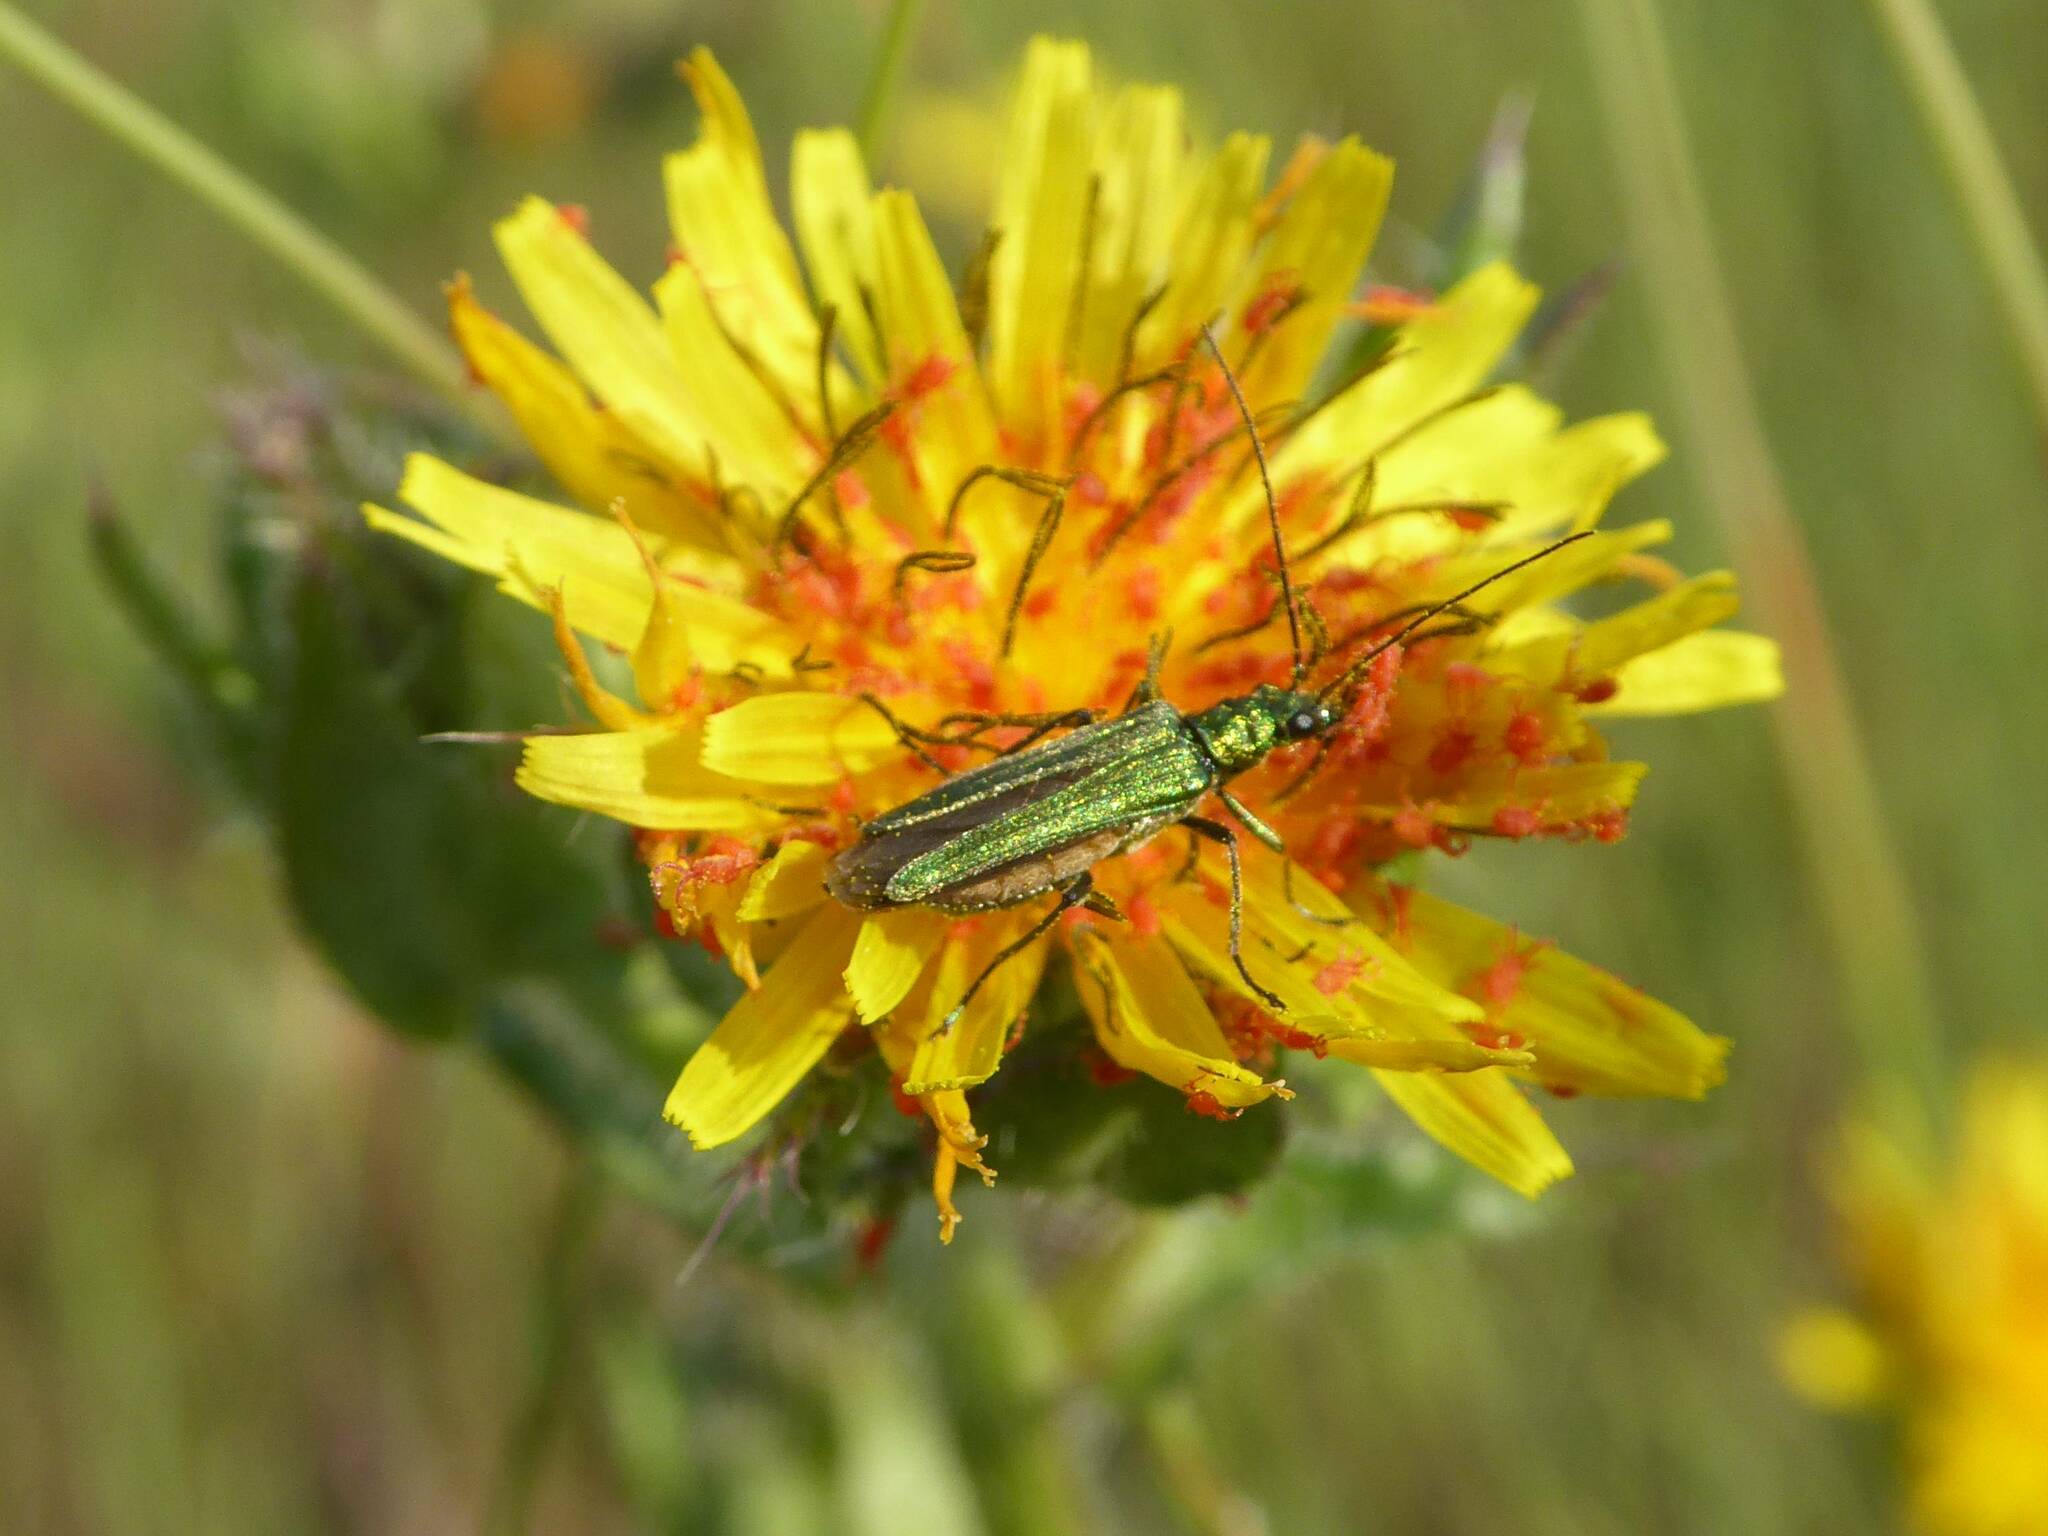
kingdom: Animalia
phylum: Arthropoda
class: Insecta
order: Coleoptera
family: Oedemeridae
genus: Oedemera
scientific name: Oedemera nobilis
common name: Swollen-thighed beetle
